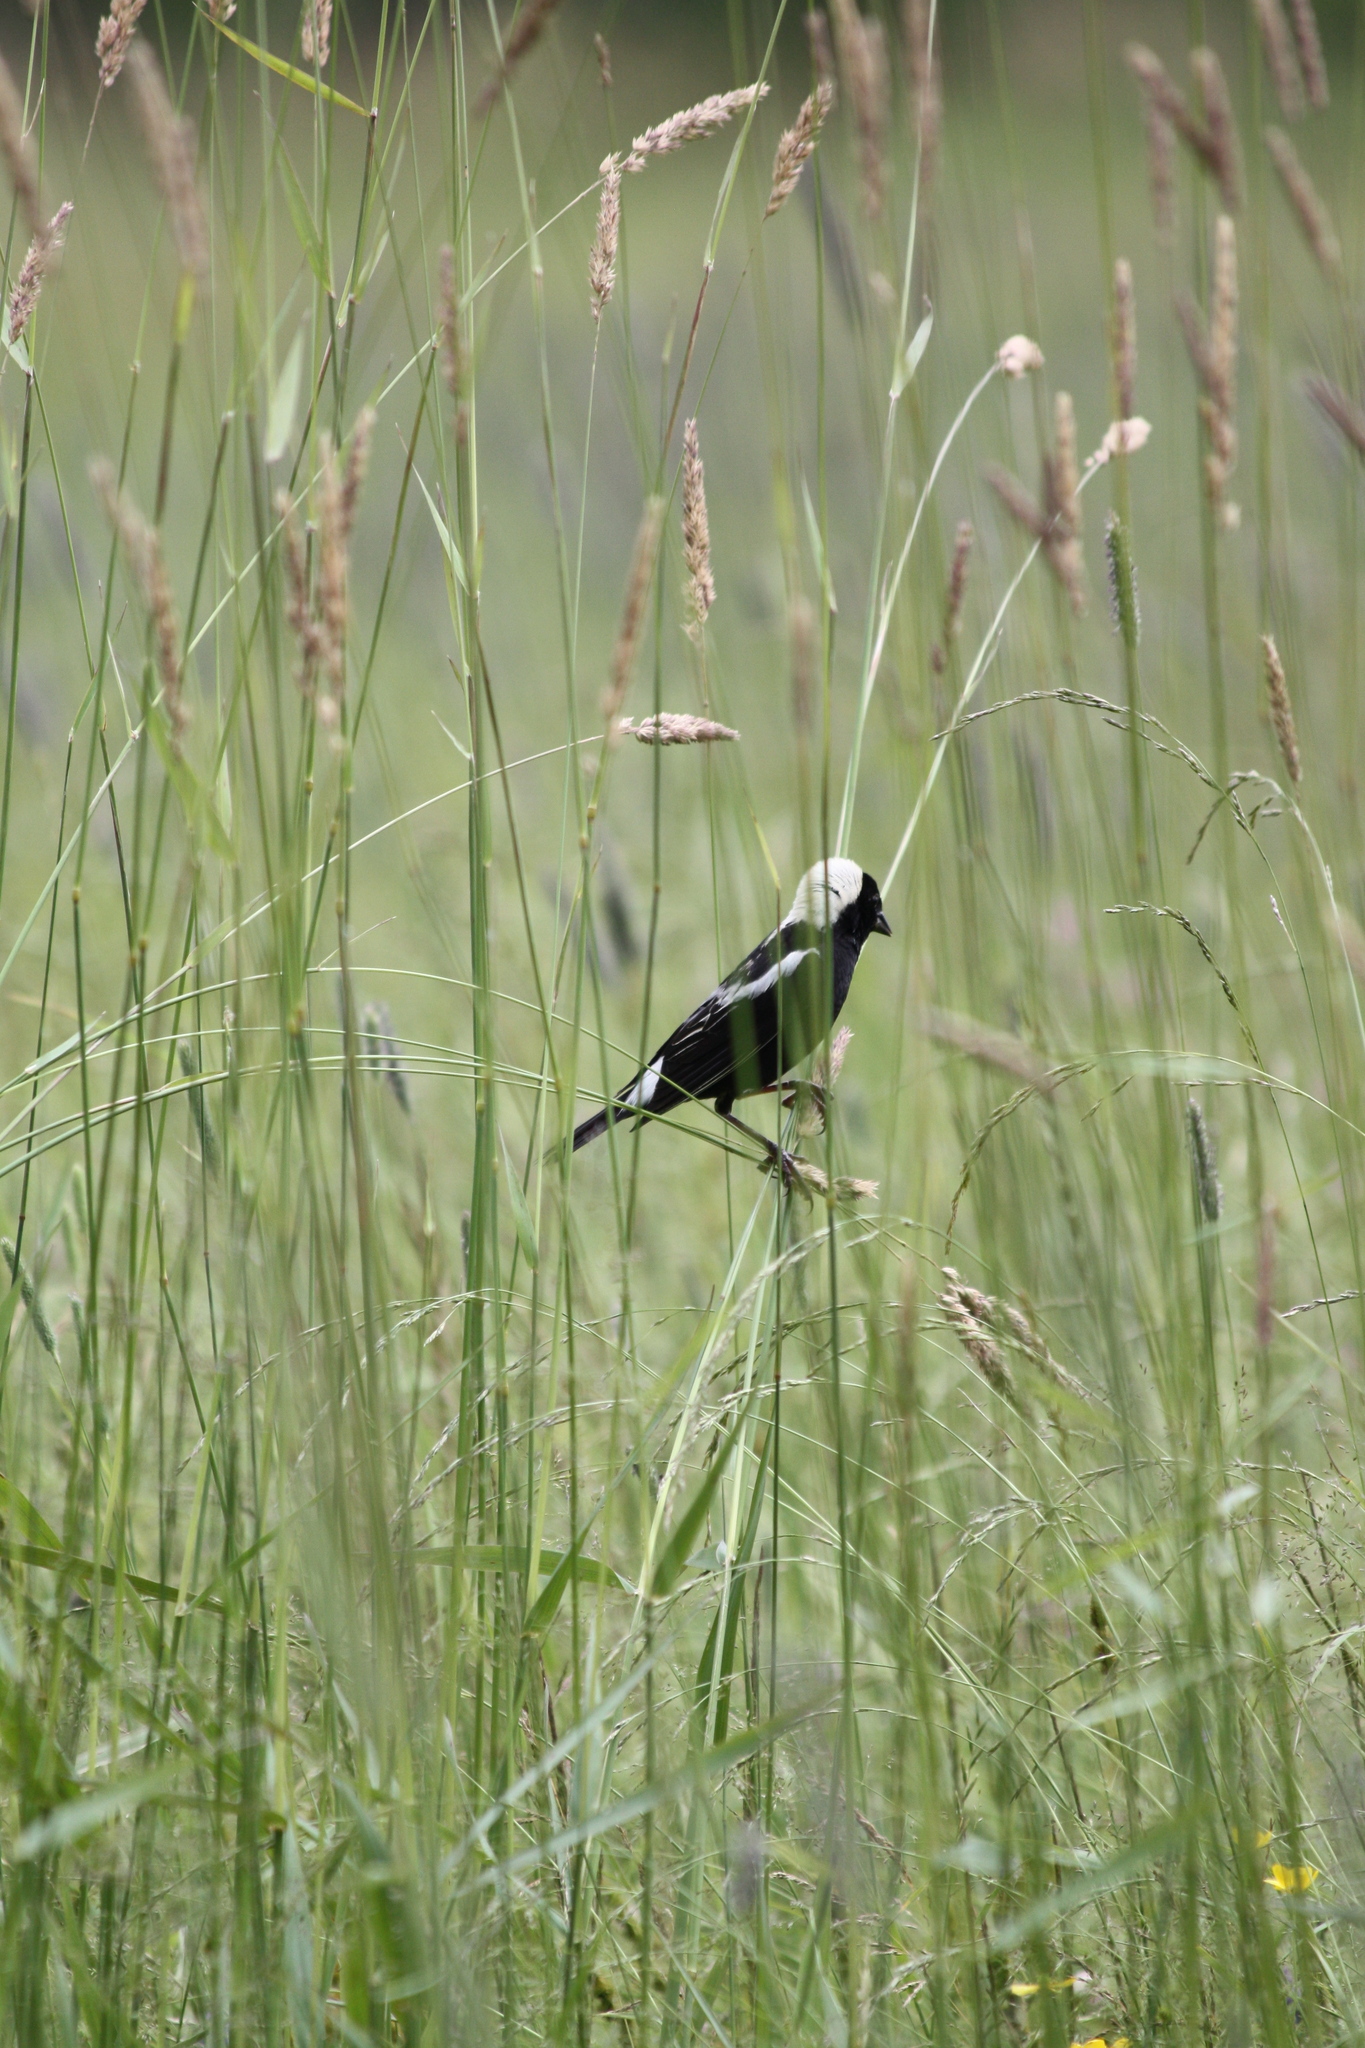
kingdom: Animalia
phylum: Chordata
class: Aves
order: Passeriformes
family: Icteridae
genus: Dolichonyx
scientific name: Dolichonyx oryzivorus
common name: Bobolink
